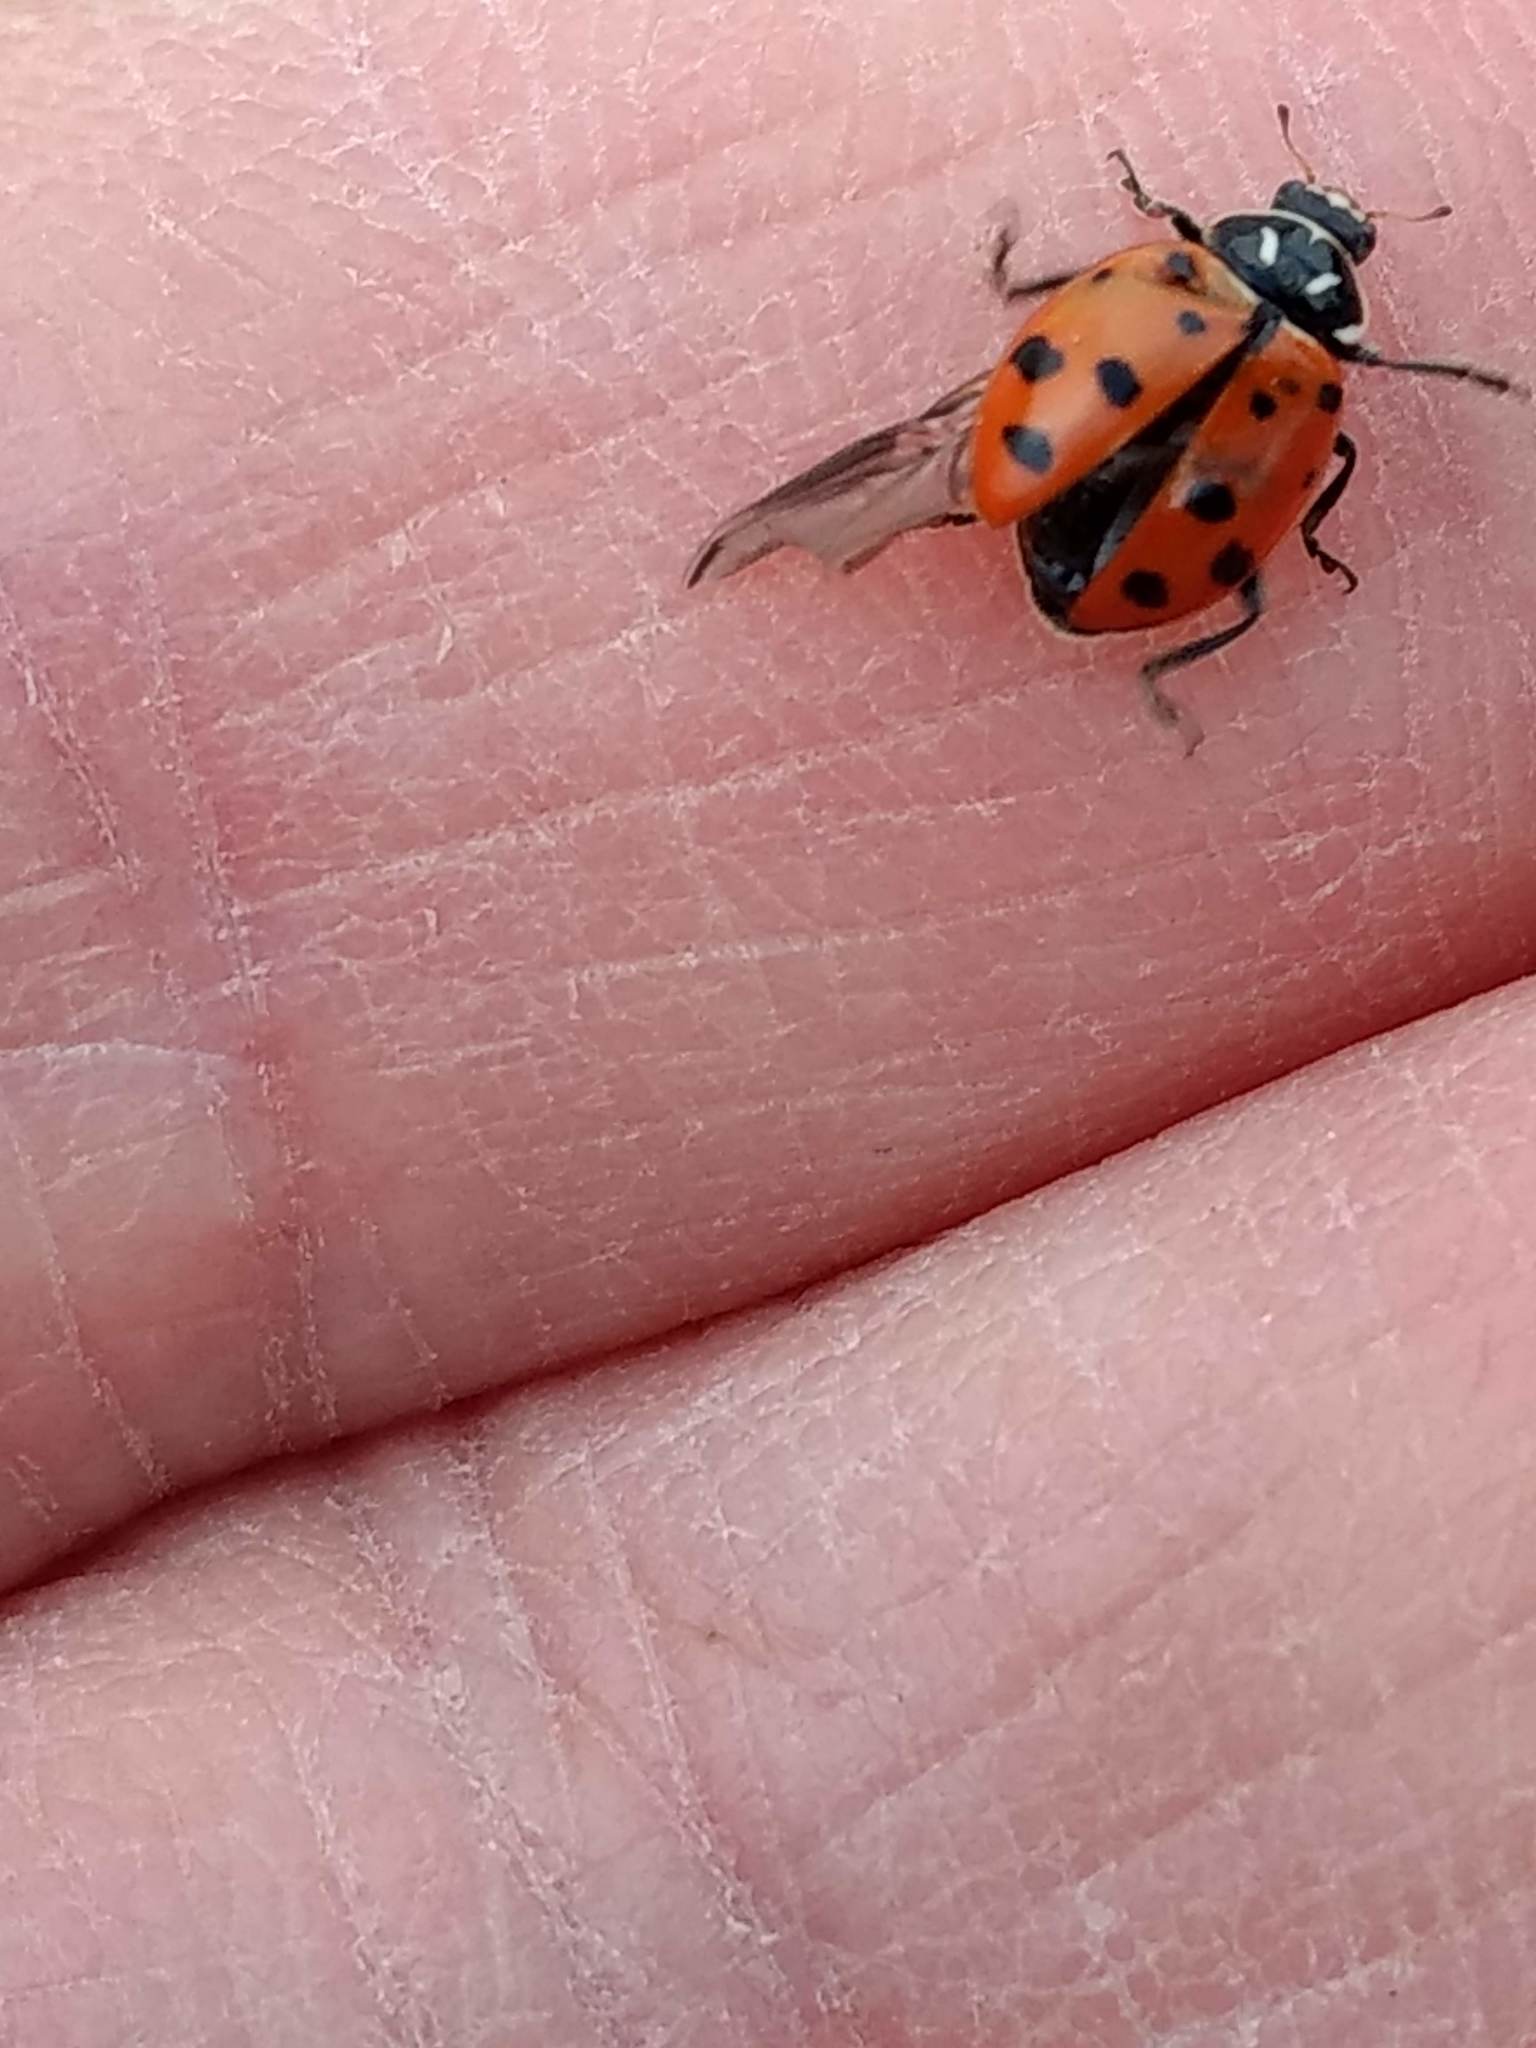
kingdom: Animalia
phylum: Arthropoda
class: Insecta
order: Coleoptera
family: Coccinellidae
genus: Hippodamia
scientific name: Hippodamia convergens
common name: Convergent lady beetle
